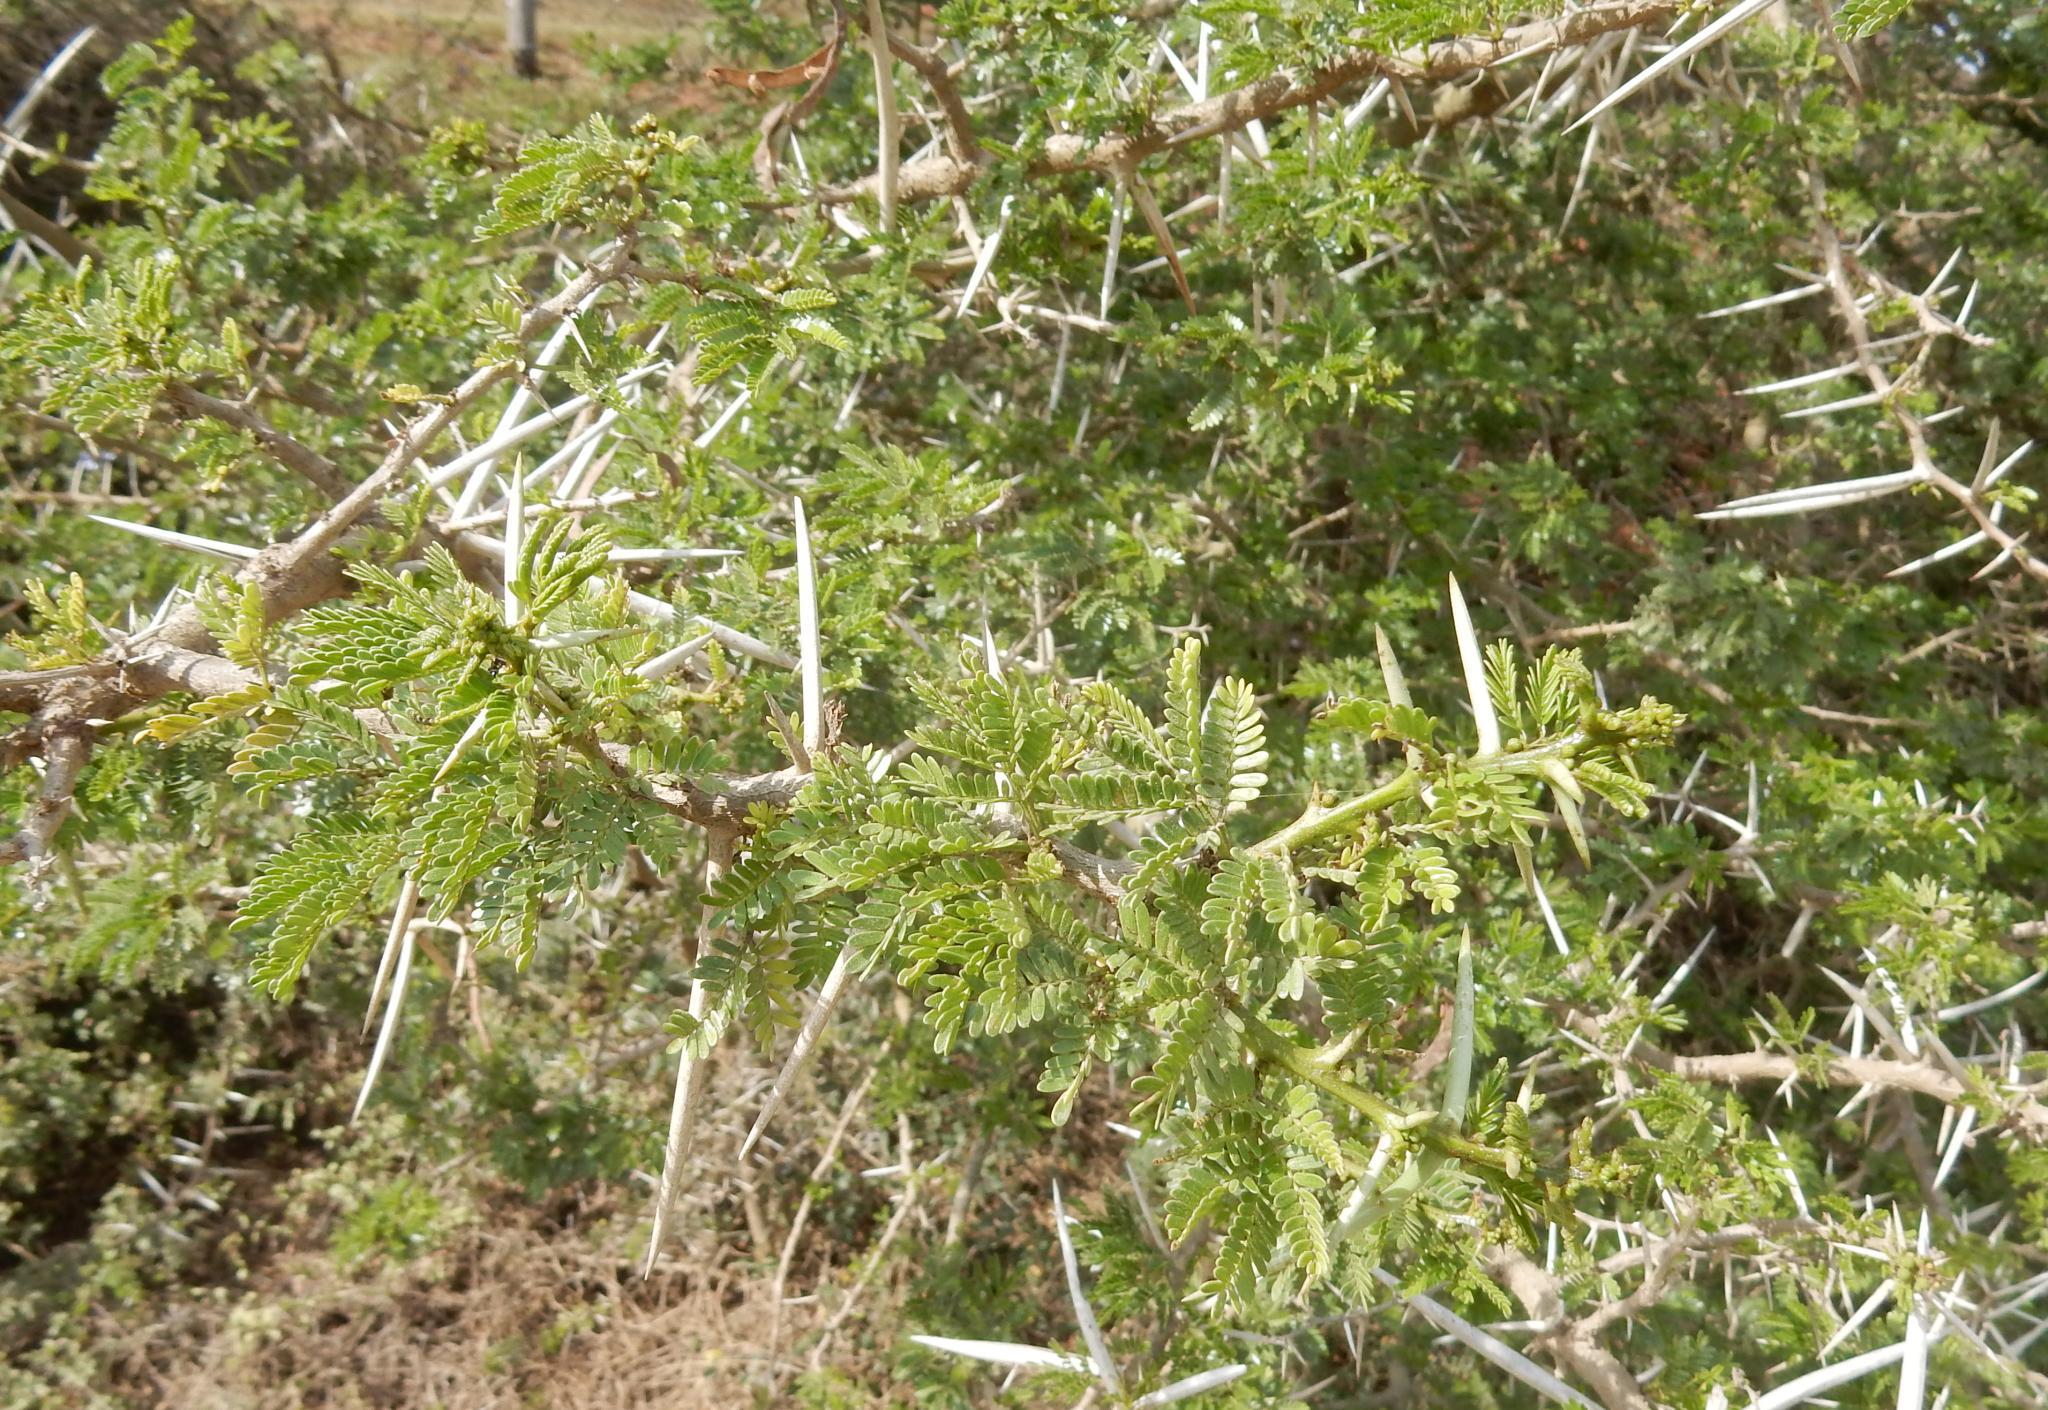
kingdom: Plantae
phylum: Tracheophyta
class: Magnoliopsida
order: Fabales
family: Fabaceae
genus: Vachellia
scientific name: Vachellia karroo
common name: Sweet thorn
